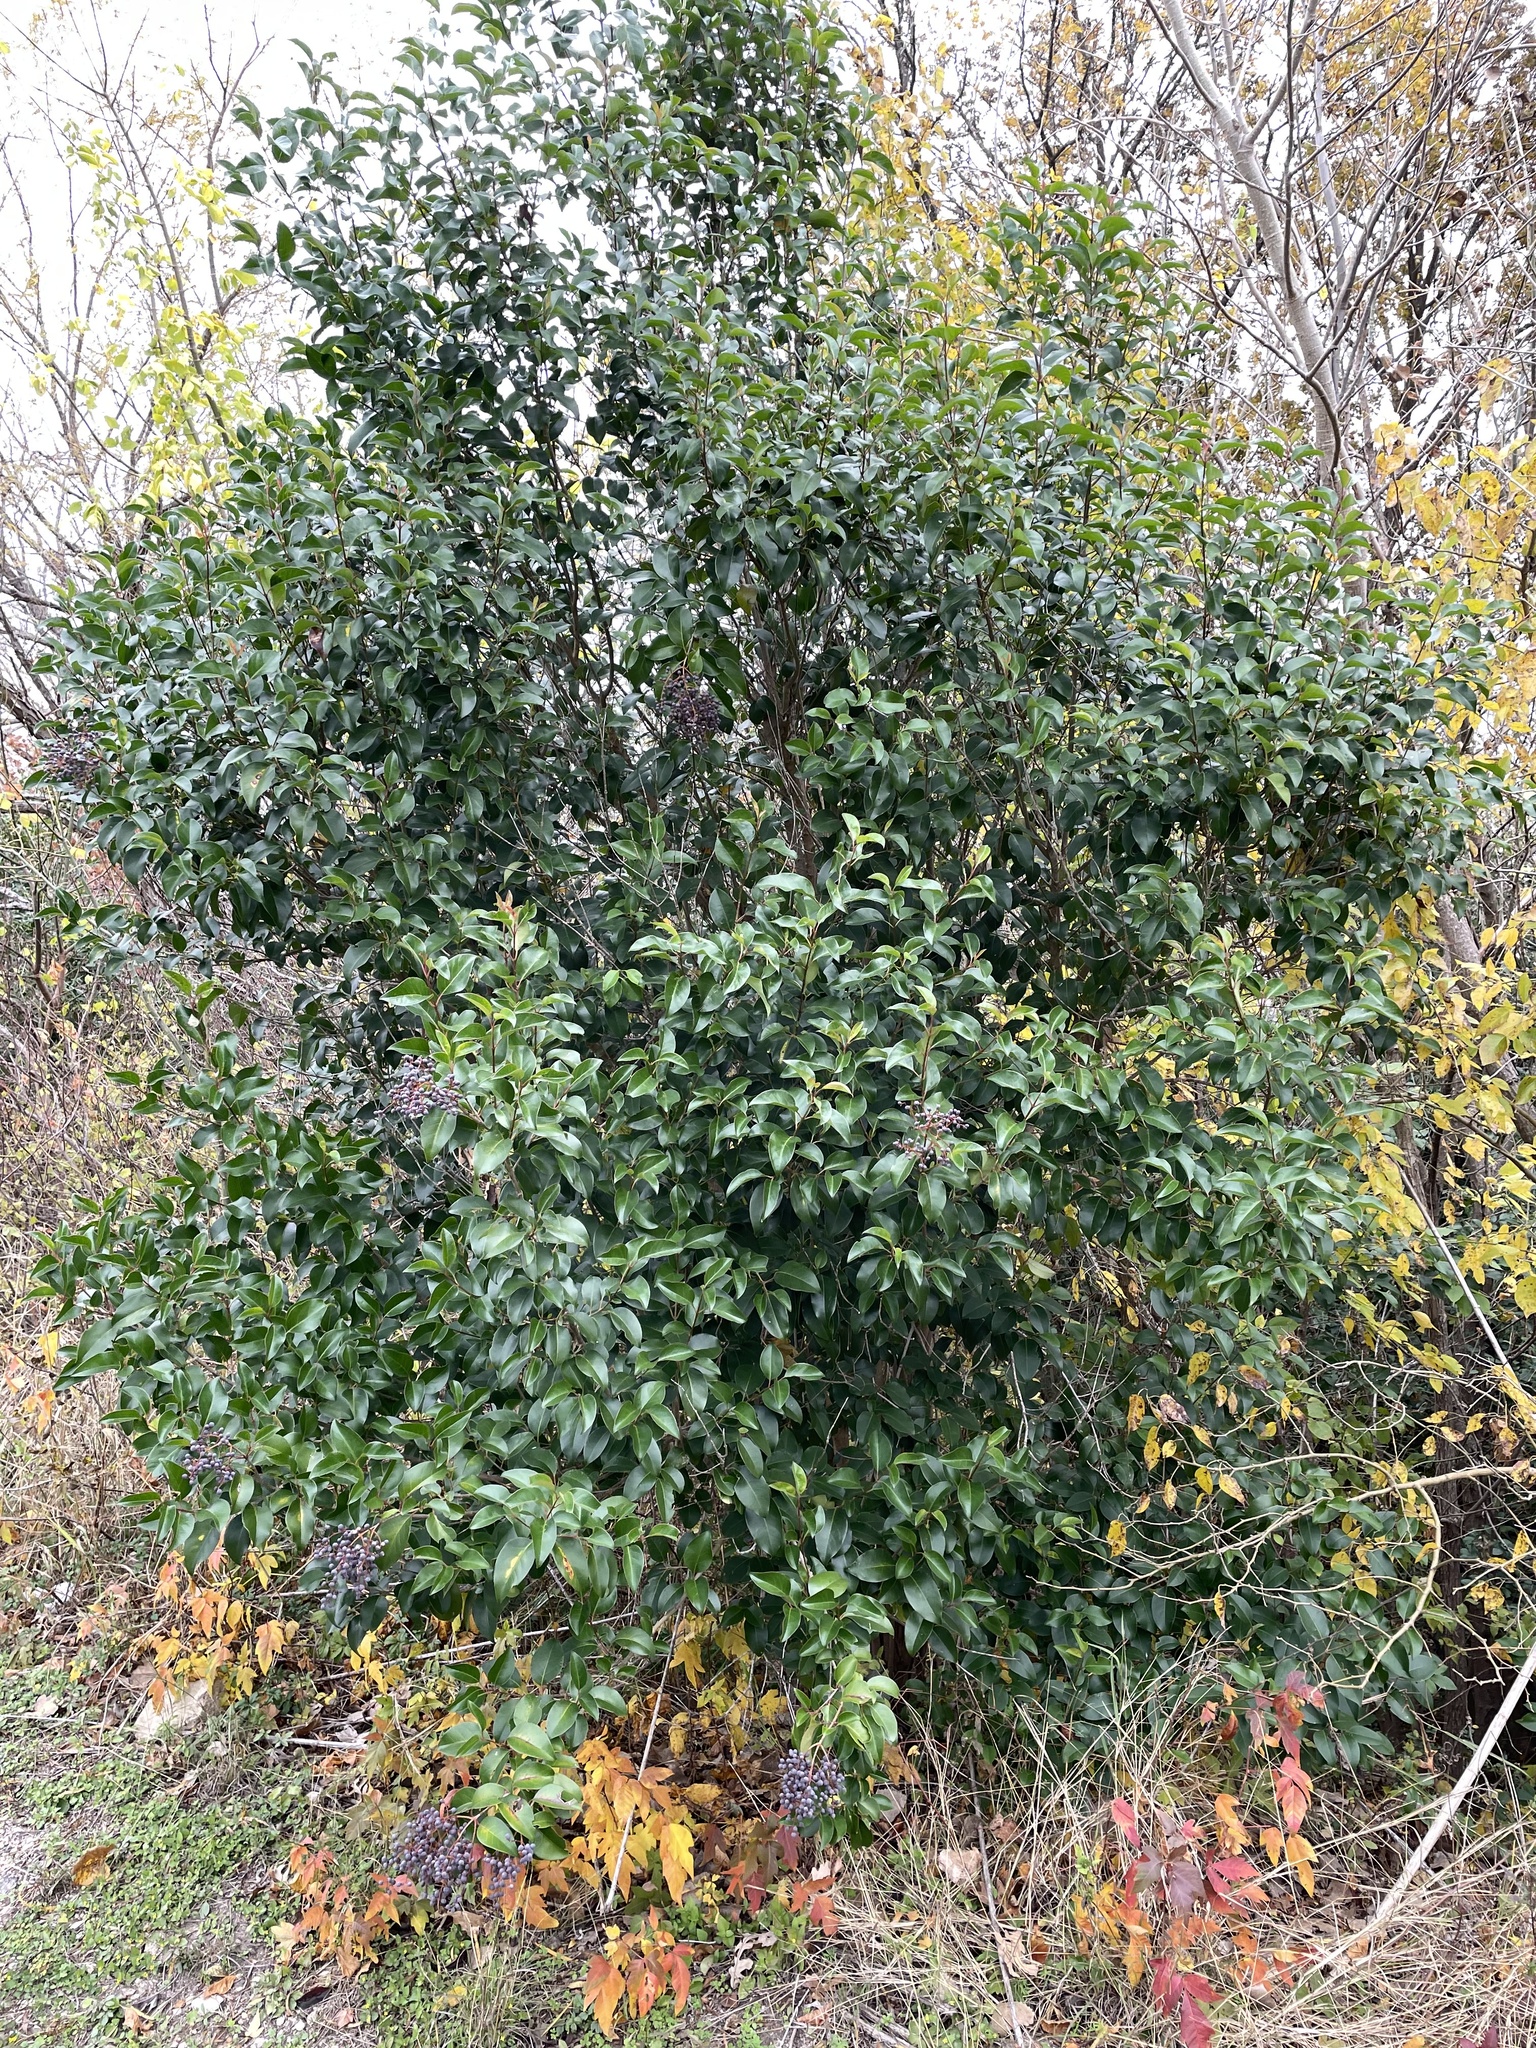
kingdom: Plantae
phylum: Tracheophyta
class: Magnoliopsida
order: Lamiales
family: Oleaceae
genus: Ligustrum
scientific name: Ligustrum lucidum
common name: Glossy privet
